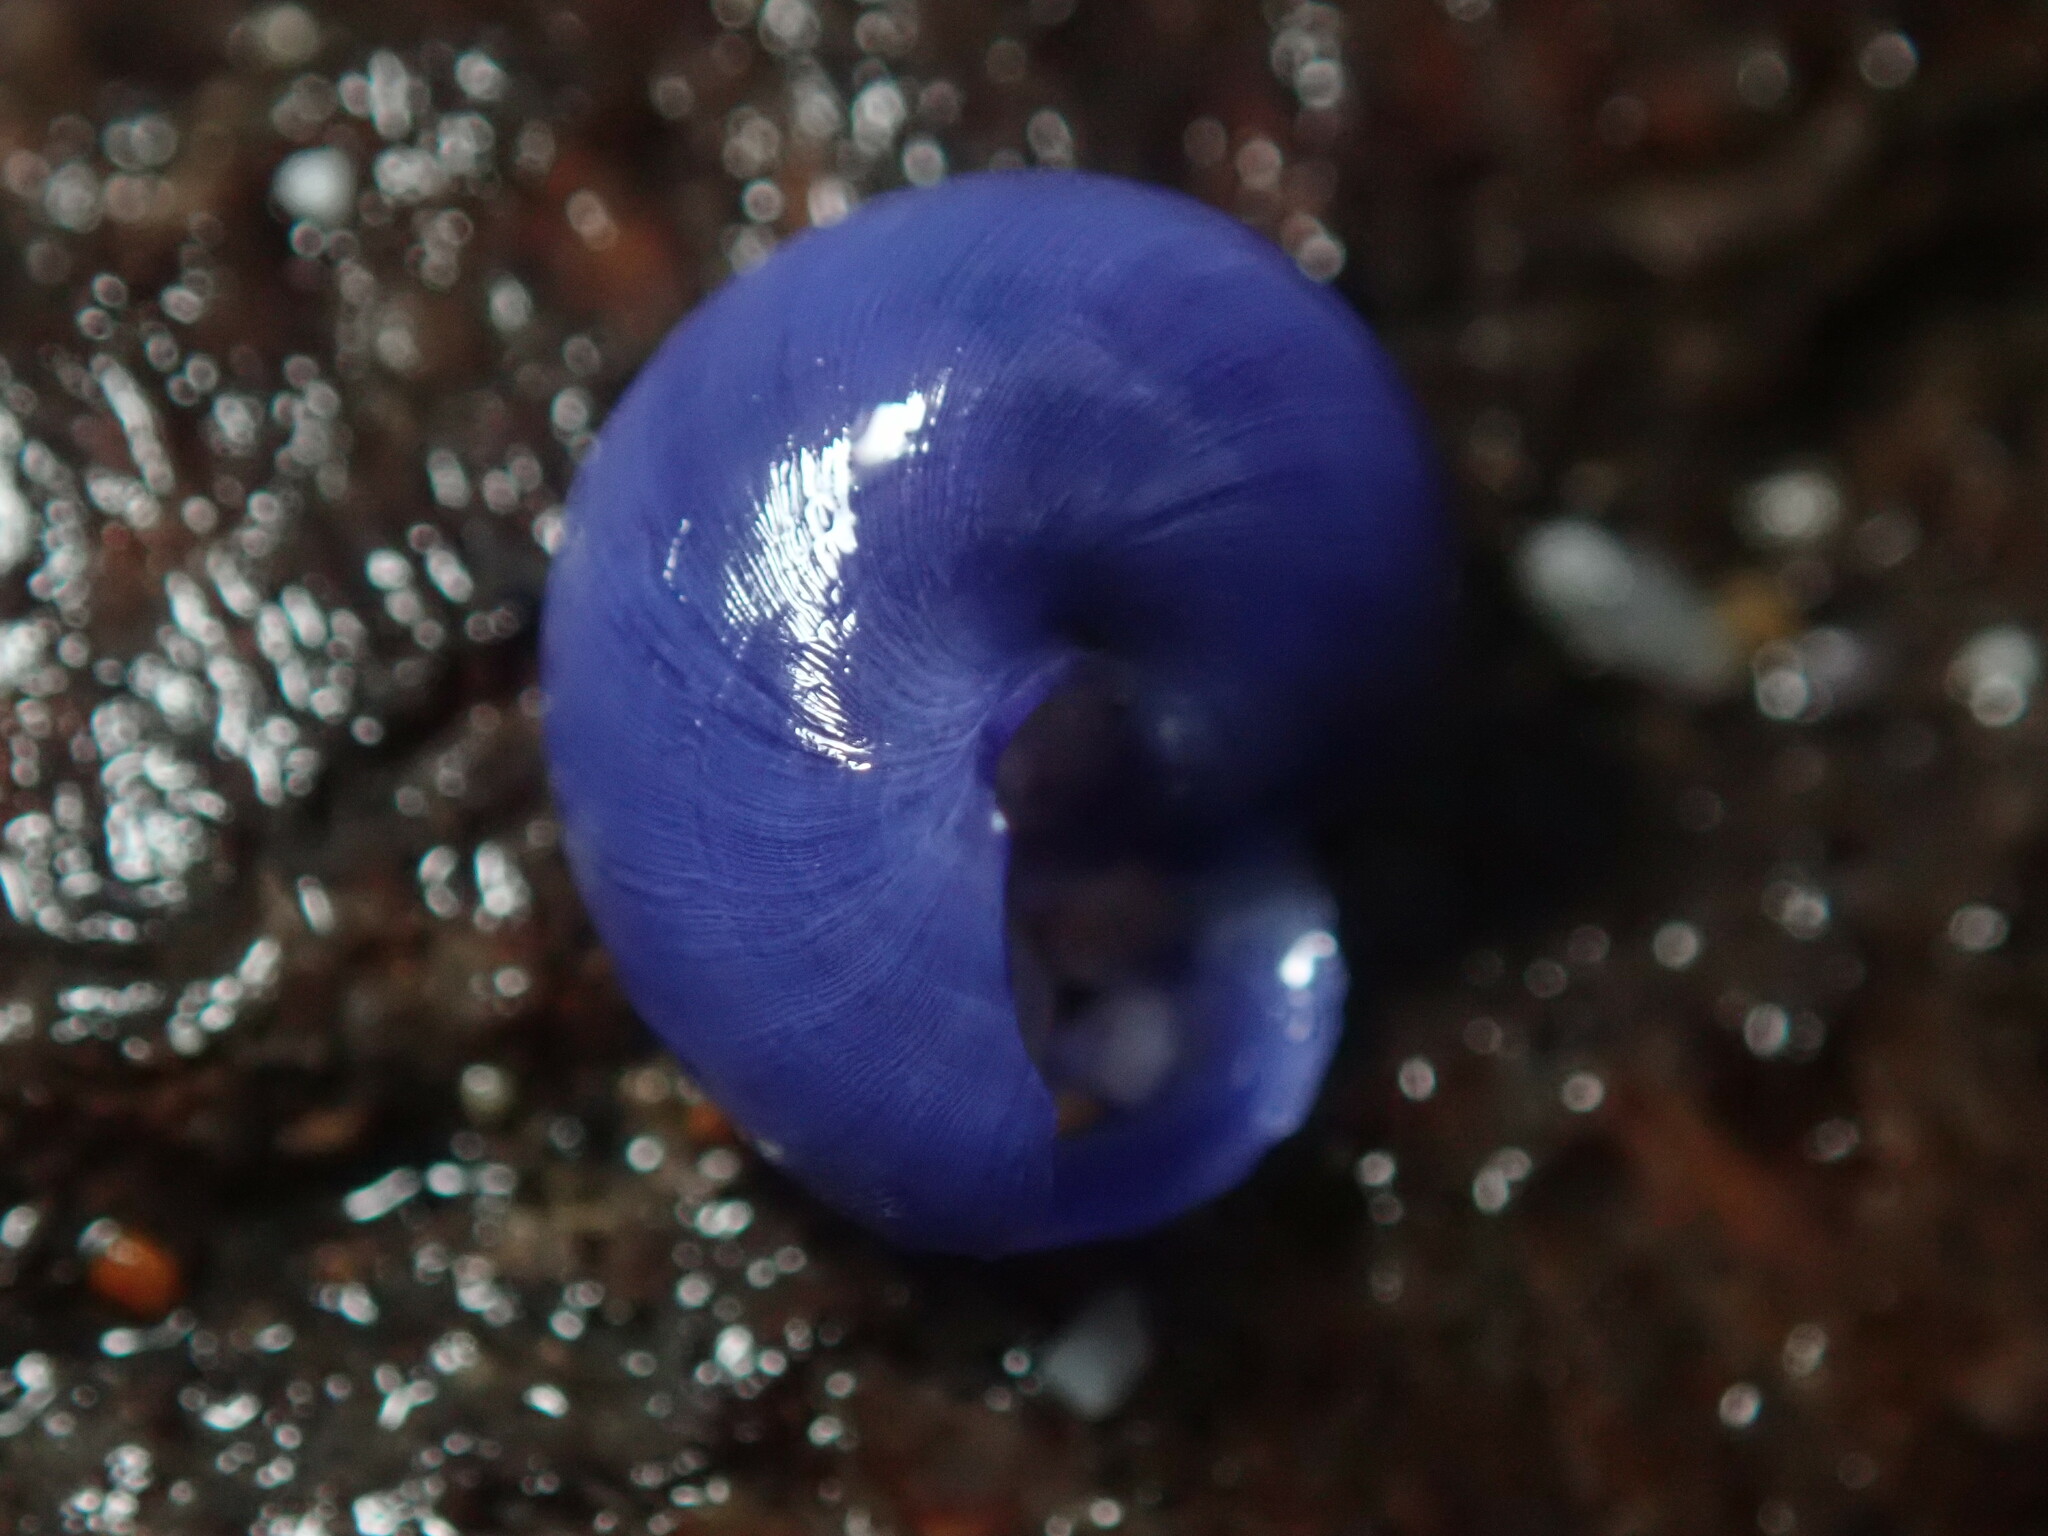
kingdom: Animalia
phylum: Mollusca
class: Gastropoda
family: Epitoniidae
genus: Janthina
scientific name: Janthina umbilicata
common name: Elongate janthina
